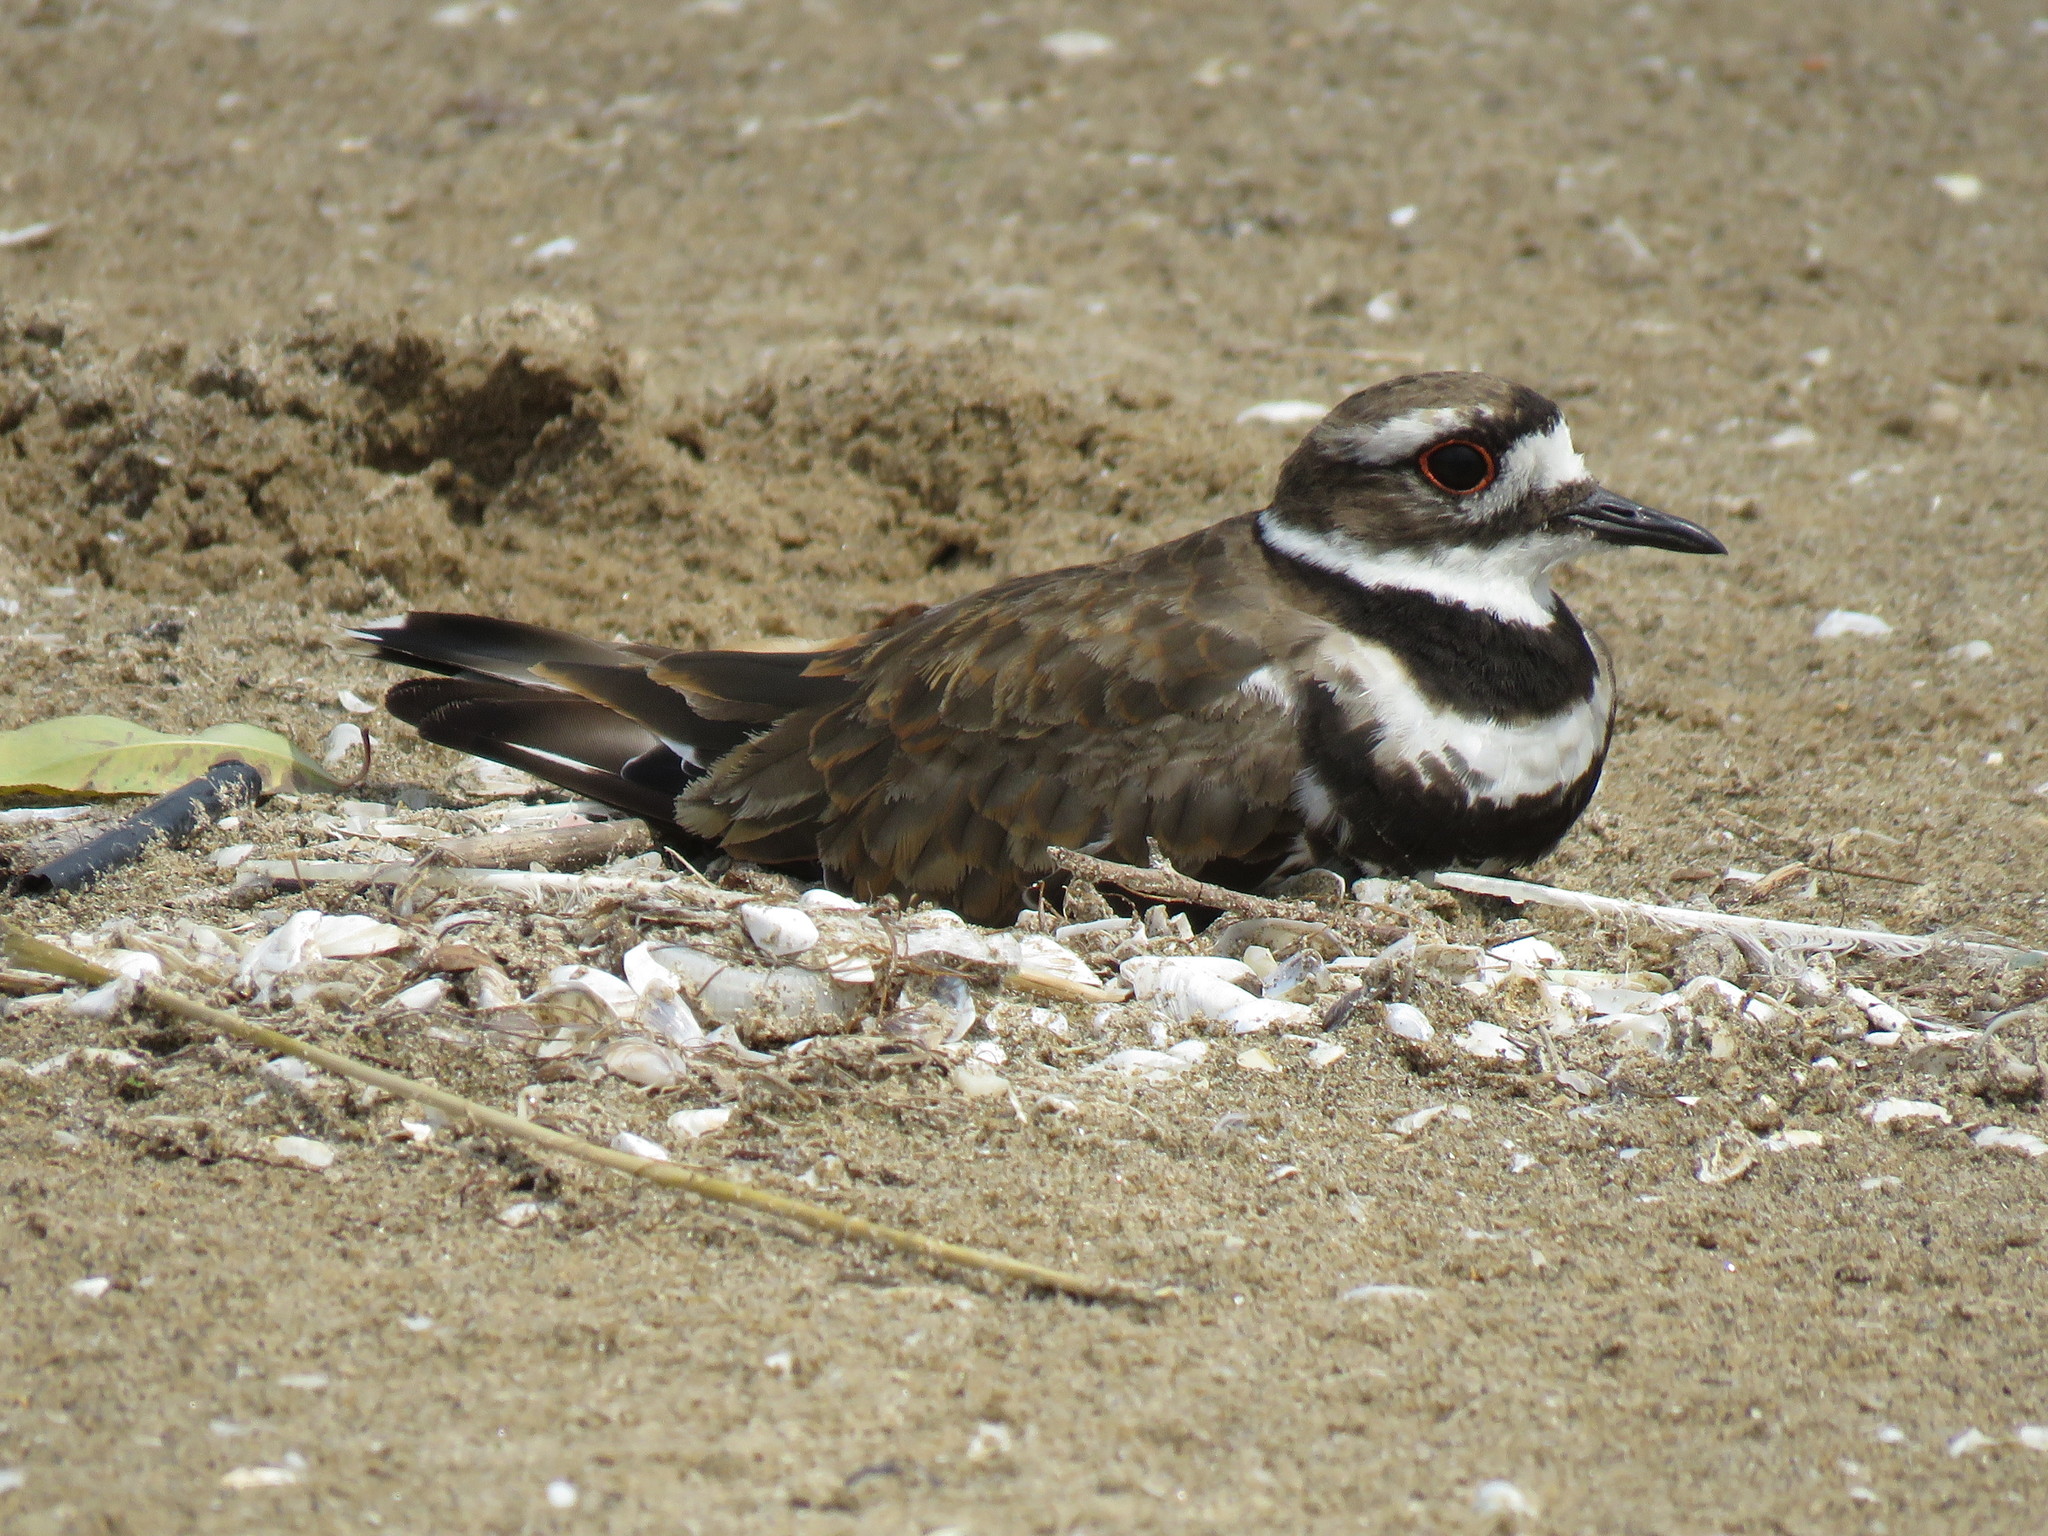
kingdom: Animalia
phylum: Chordata
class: Aves
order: Charadriiformes
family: Charadriidae
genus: Charadrius
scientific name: Charadrius vociferus
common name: Killdeer
